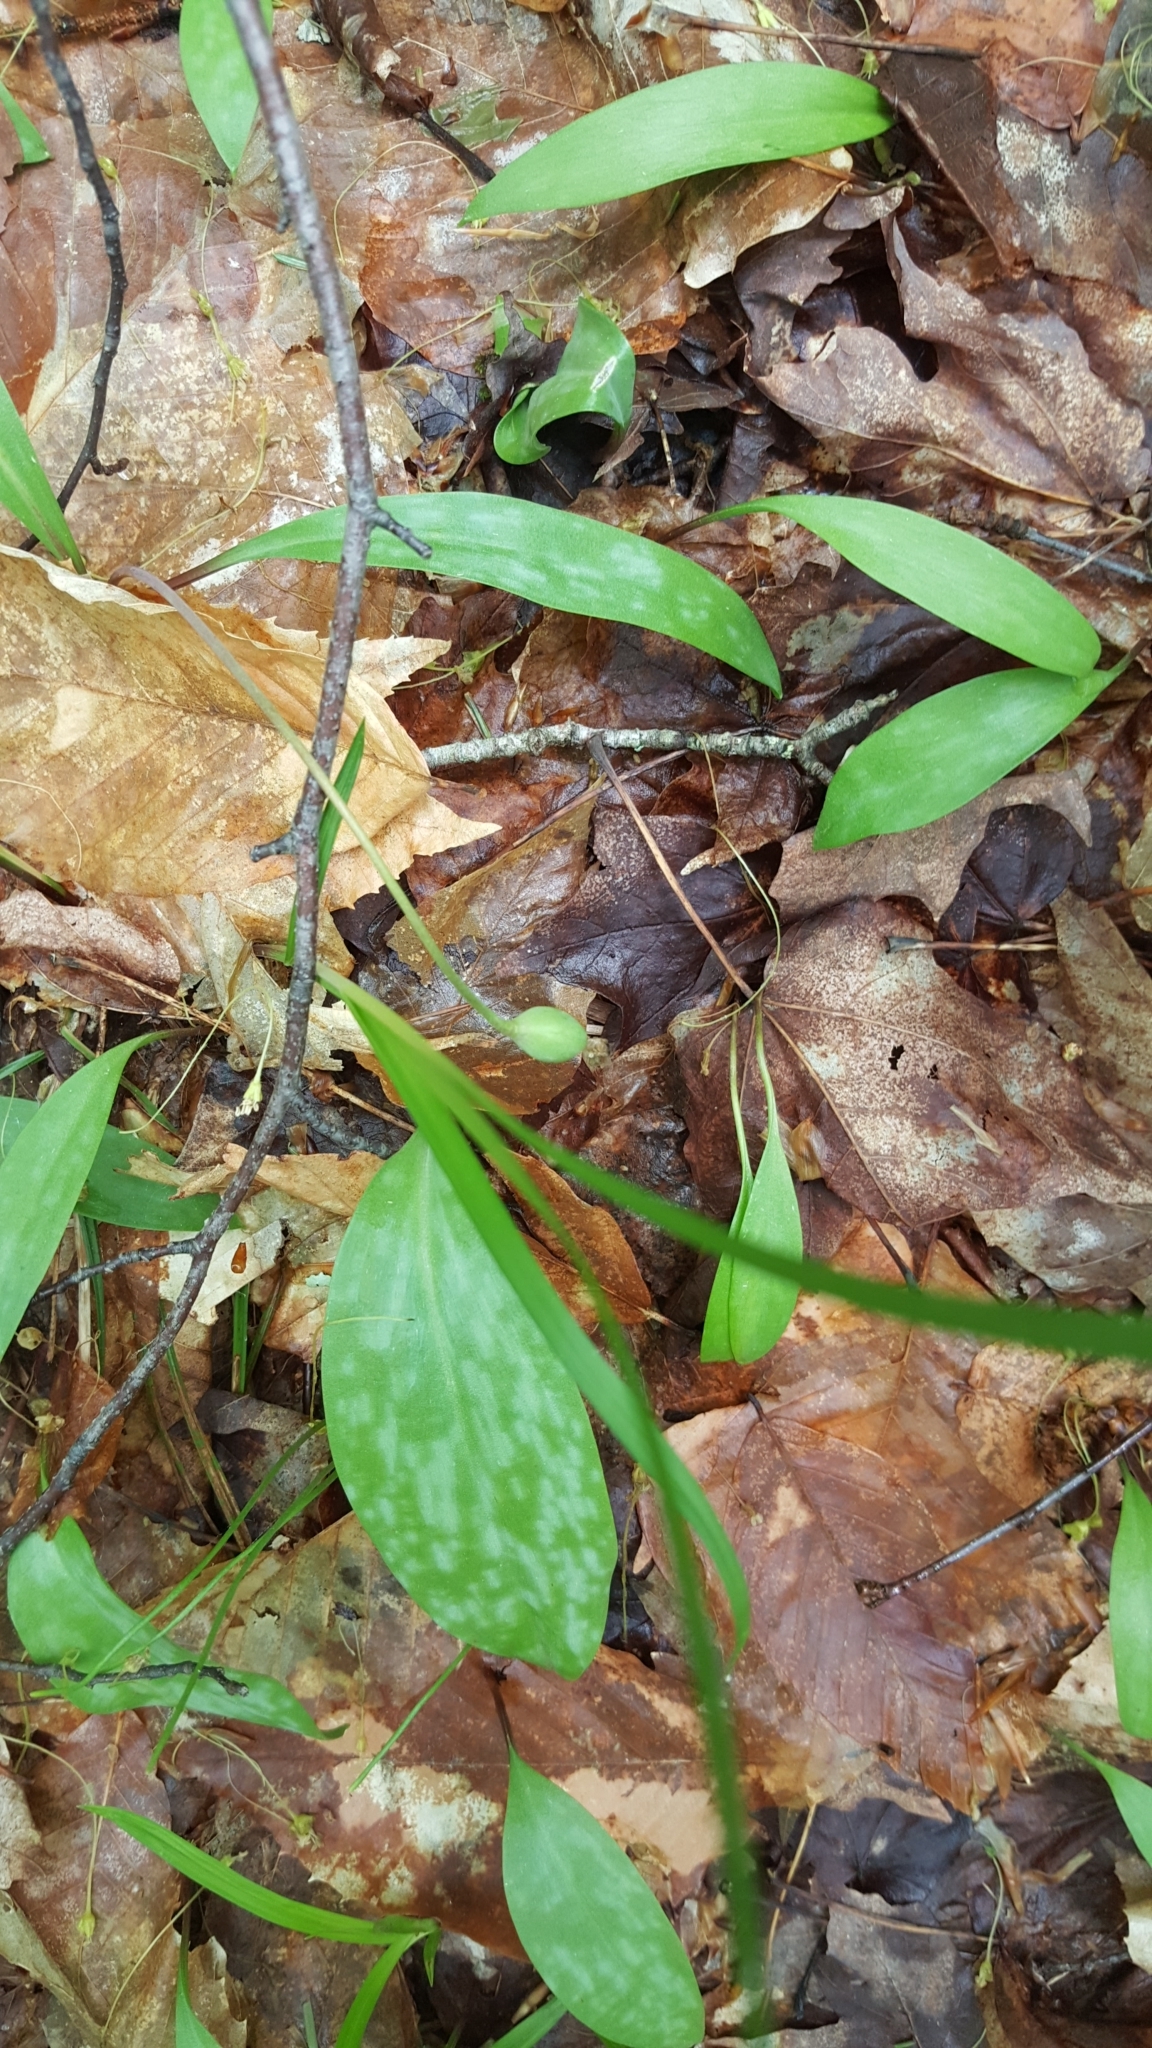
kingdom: Plantae
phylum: Tracheophyta
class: Liliopsida
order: Liliales
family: Liliaceae
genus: Erythronium
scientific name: Erythronium americanum
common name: Yellow adder's-tongue
